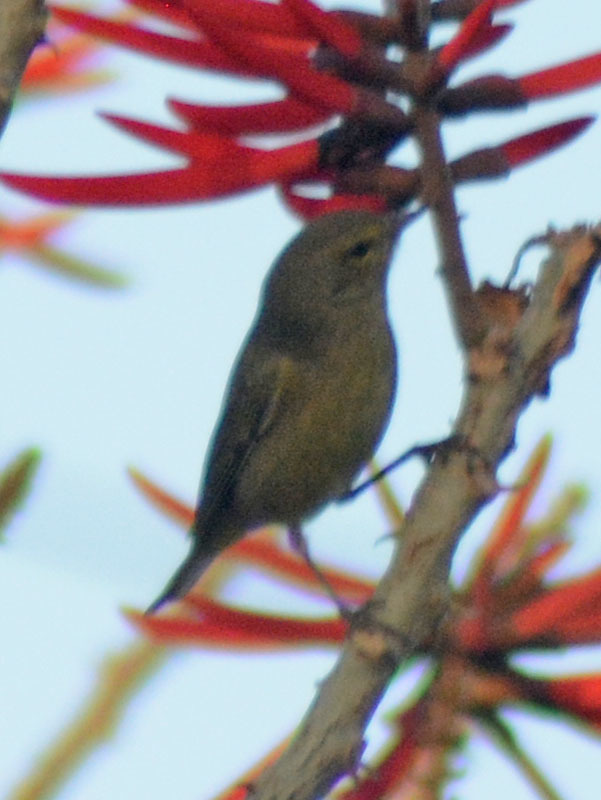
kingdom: Animalia
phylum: Chordata
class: Aves
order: Passeriformes
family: Parulidae
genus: Leiothlypis
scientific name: Leiothlypis celata
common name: Orange-crowned warbler
